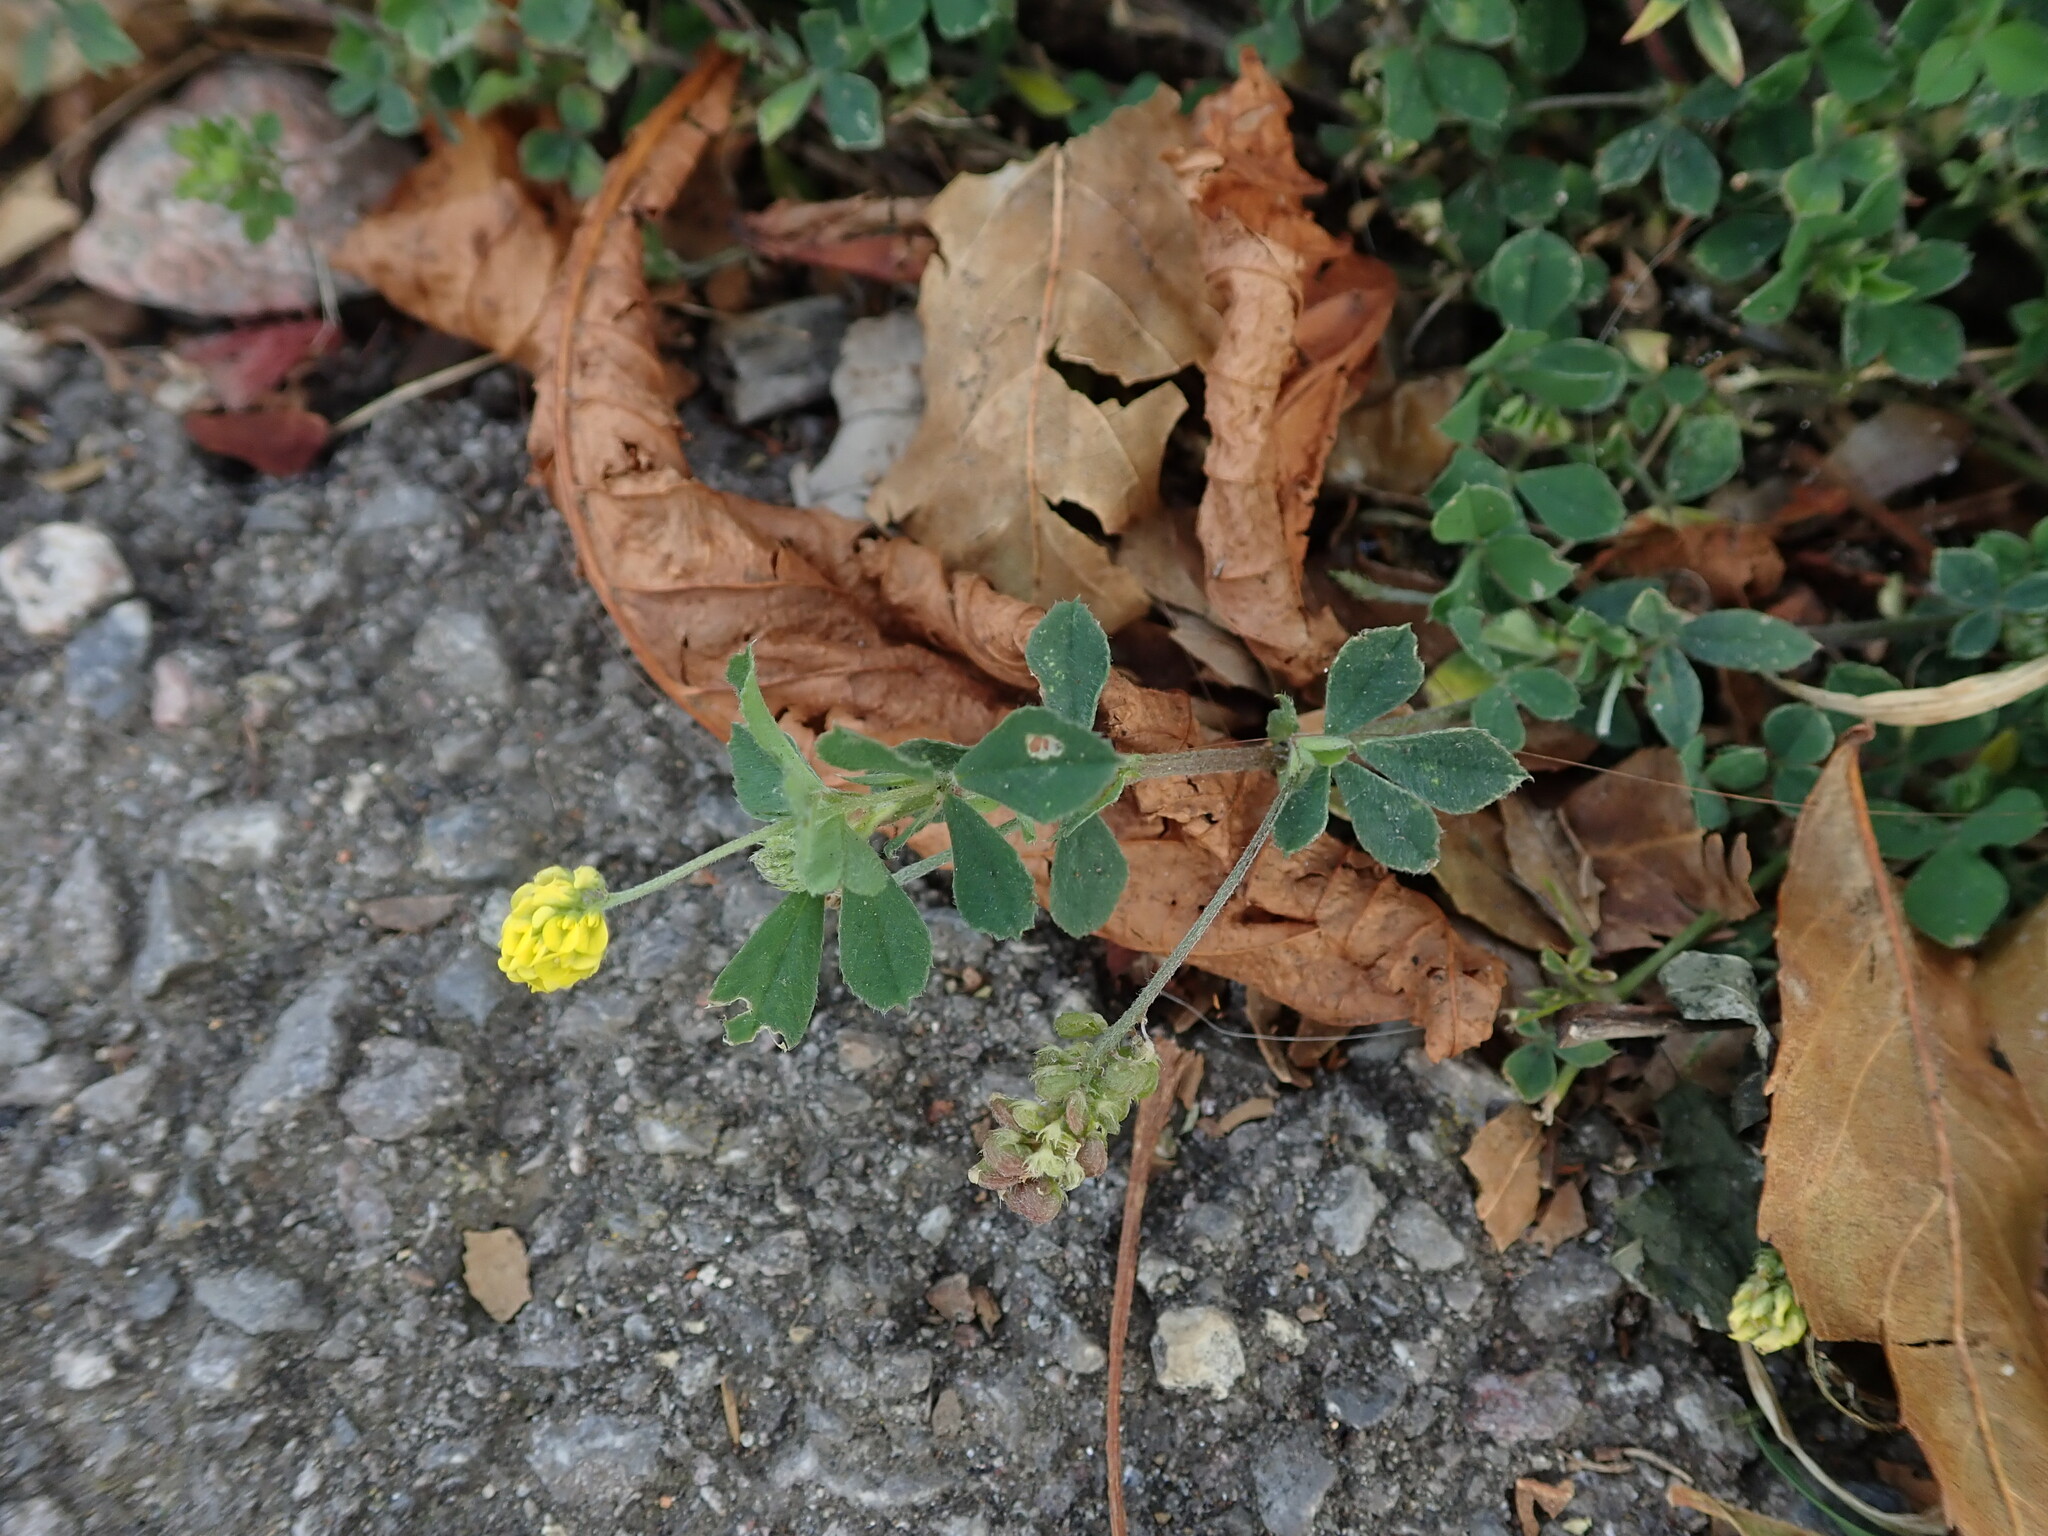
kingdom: Plantae
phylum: Tracheophyta
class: Magnoliopsida
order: Fabales
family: Fabaceae
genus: Medicago
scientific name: Medicago lupulina
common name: Black medick
